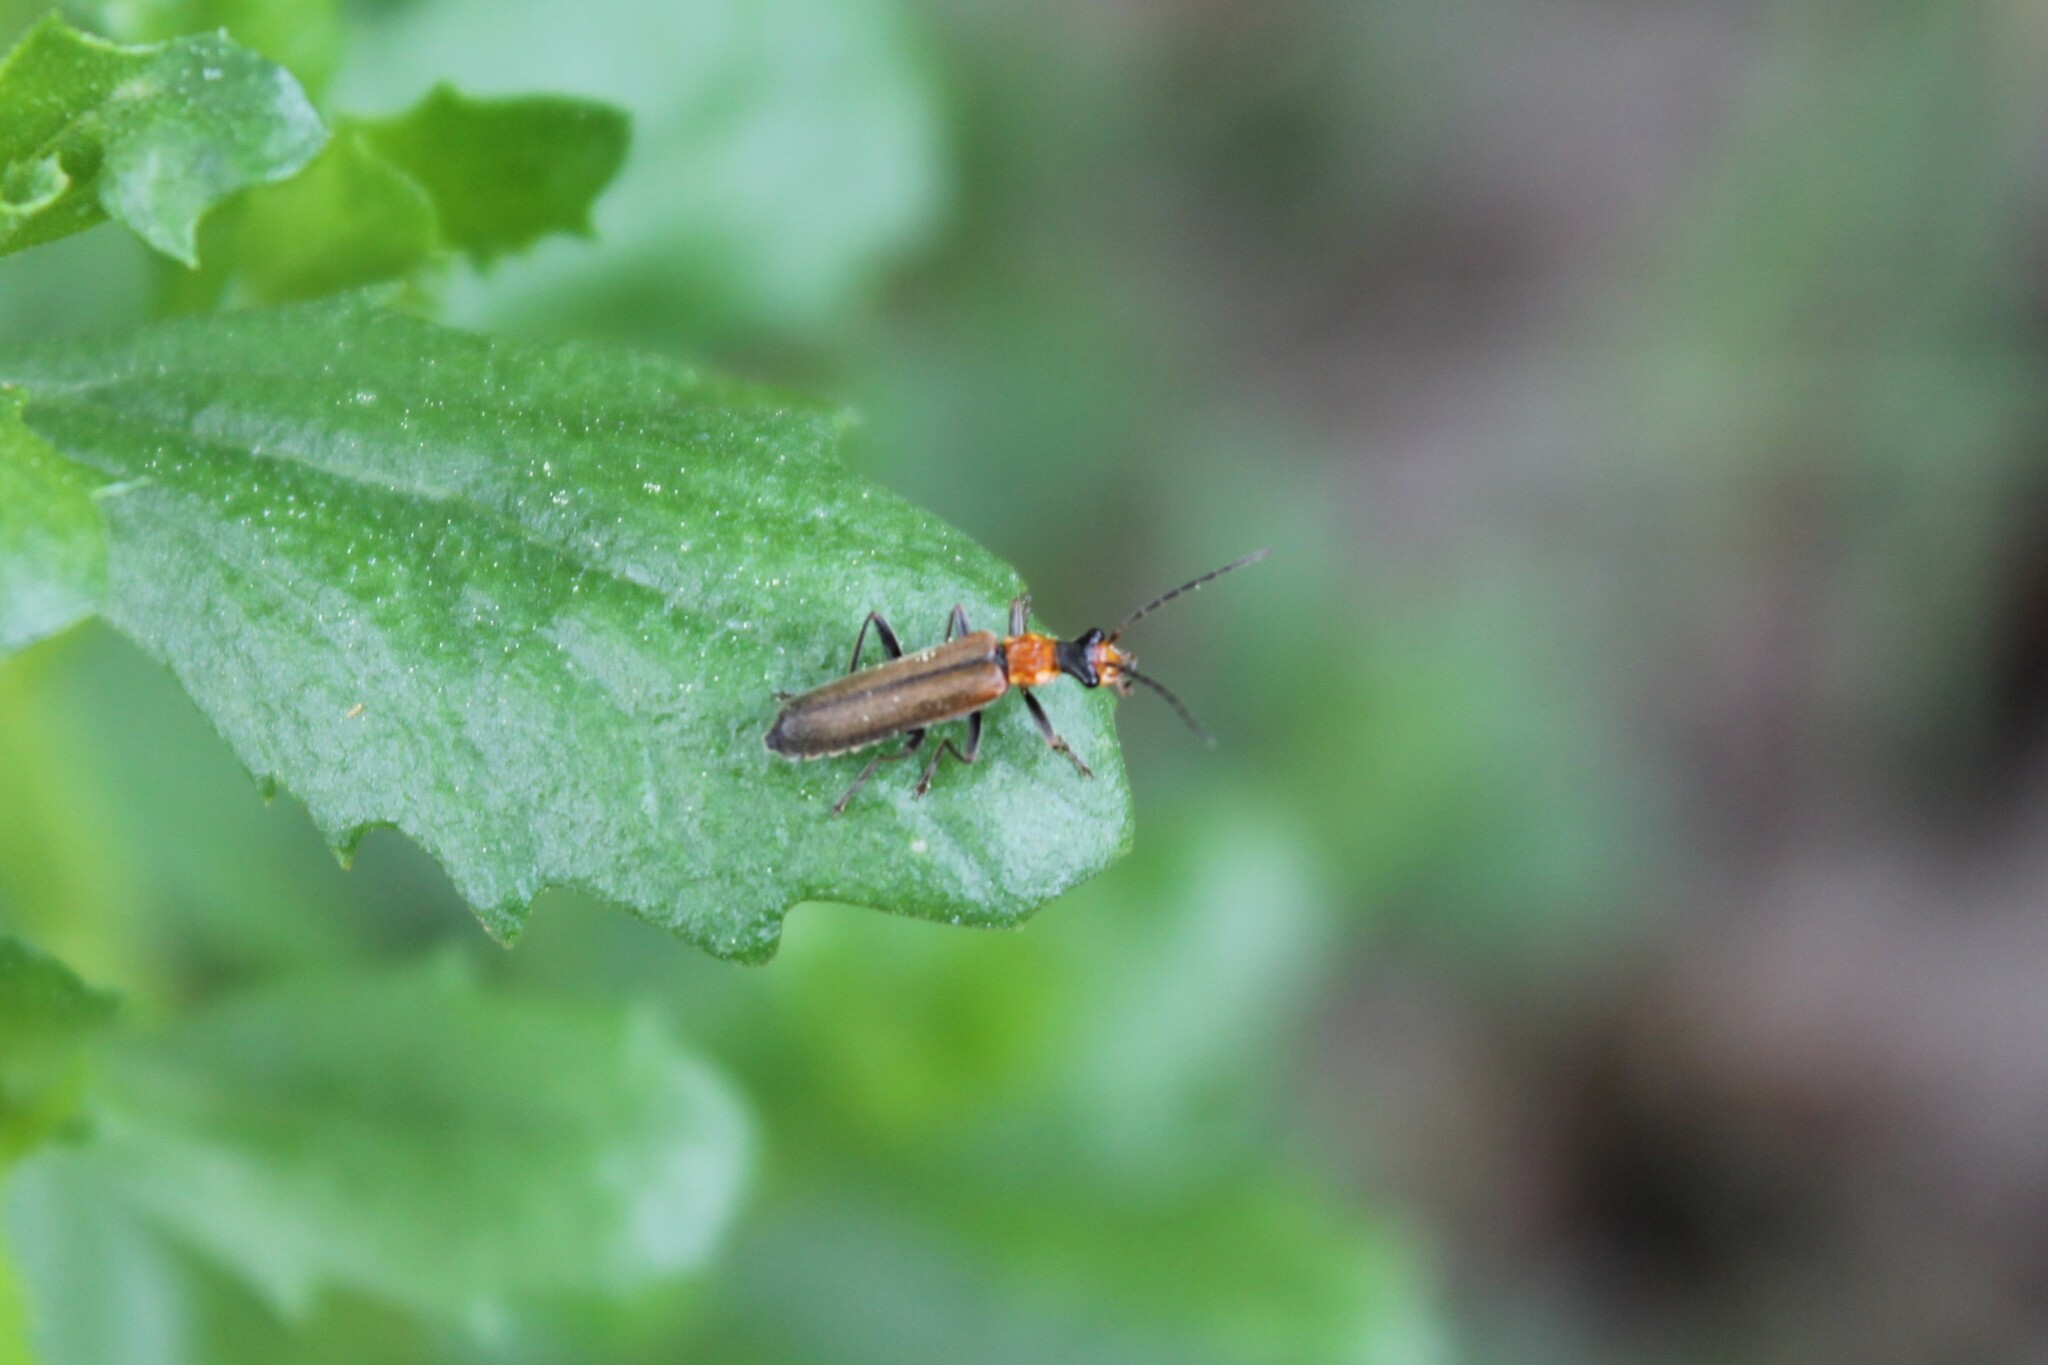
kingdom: Animalia
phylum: Arthropoda
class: Insecta
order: Coleoptera
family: Cantharidae
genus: Dichelotarsus
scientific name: Dichelotarsus cavicollis
